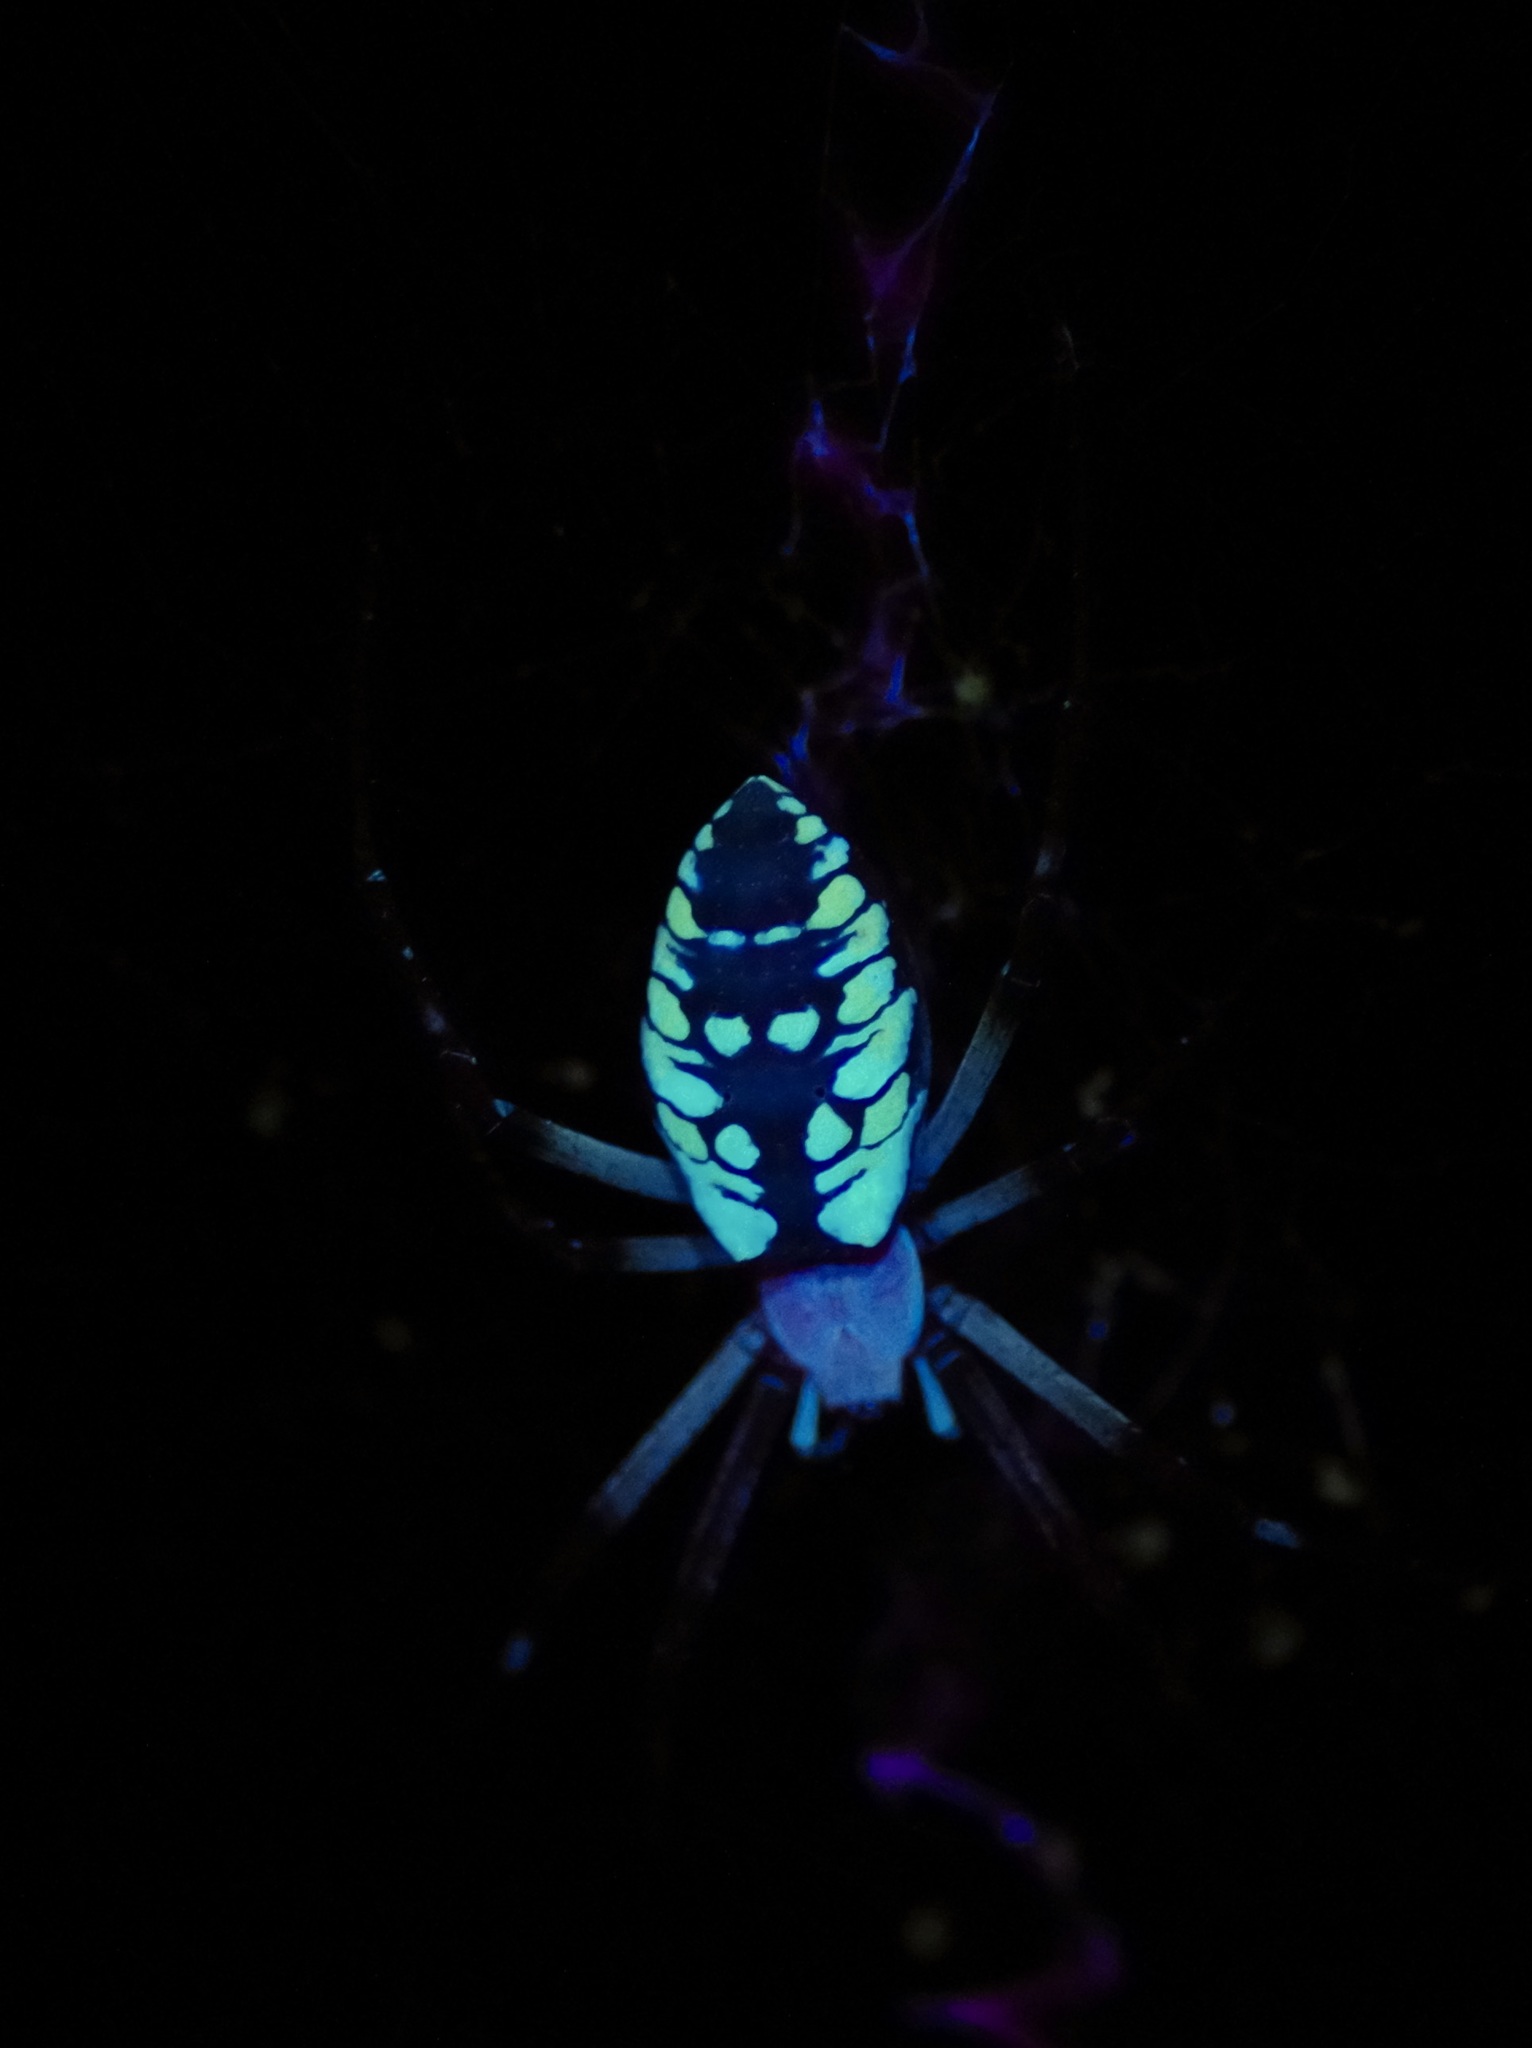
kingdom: Animalia
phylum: Arthropoda
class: Arachnida
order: Araneae
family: Araneidae
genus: Argiope
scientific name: Argiope aurantia
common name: Orb weavers
